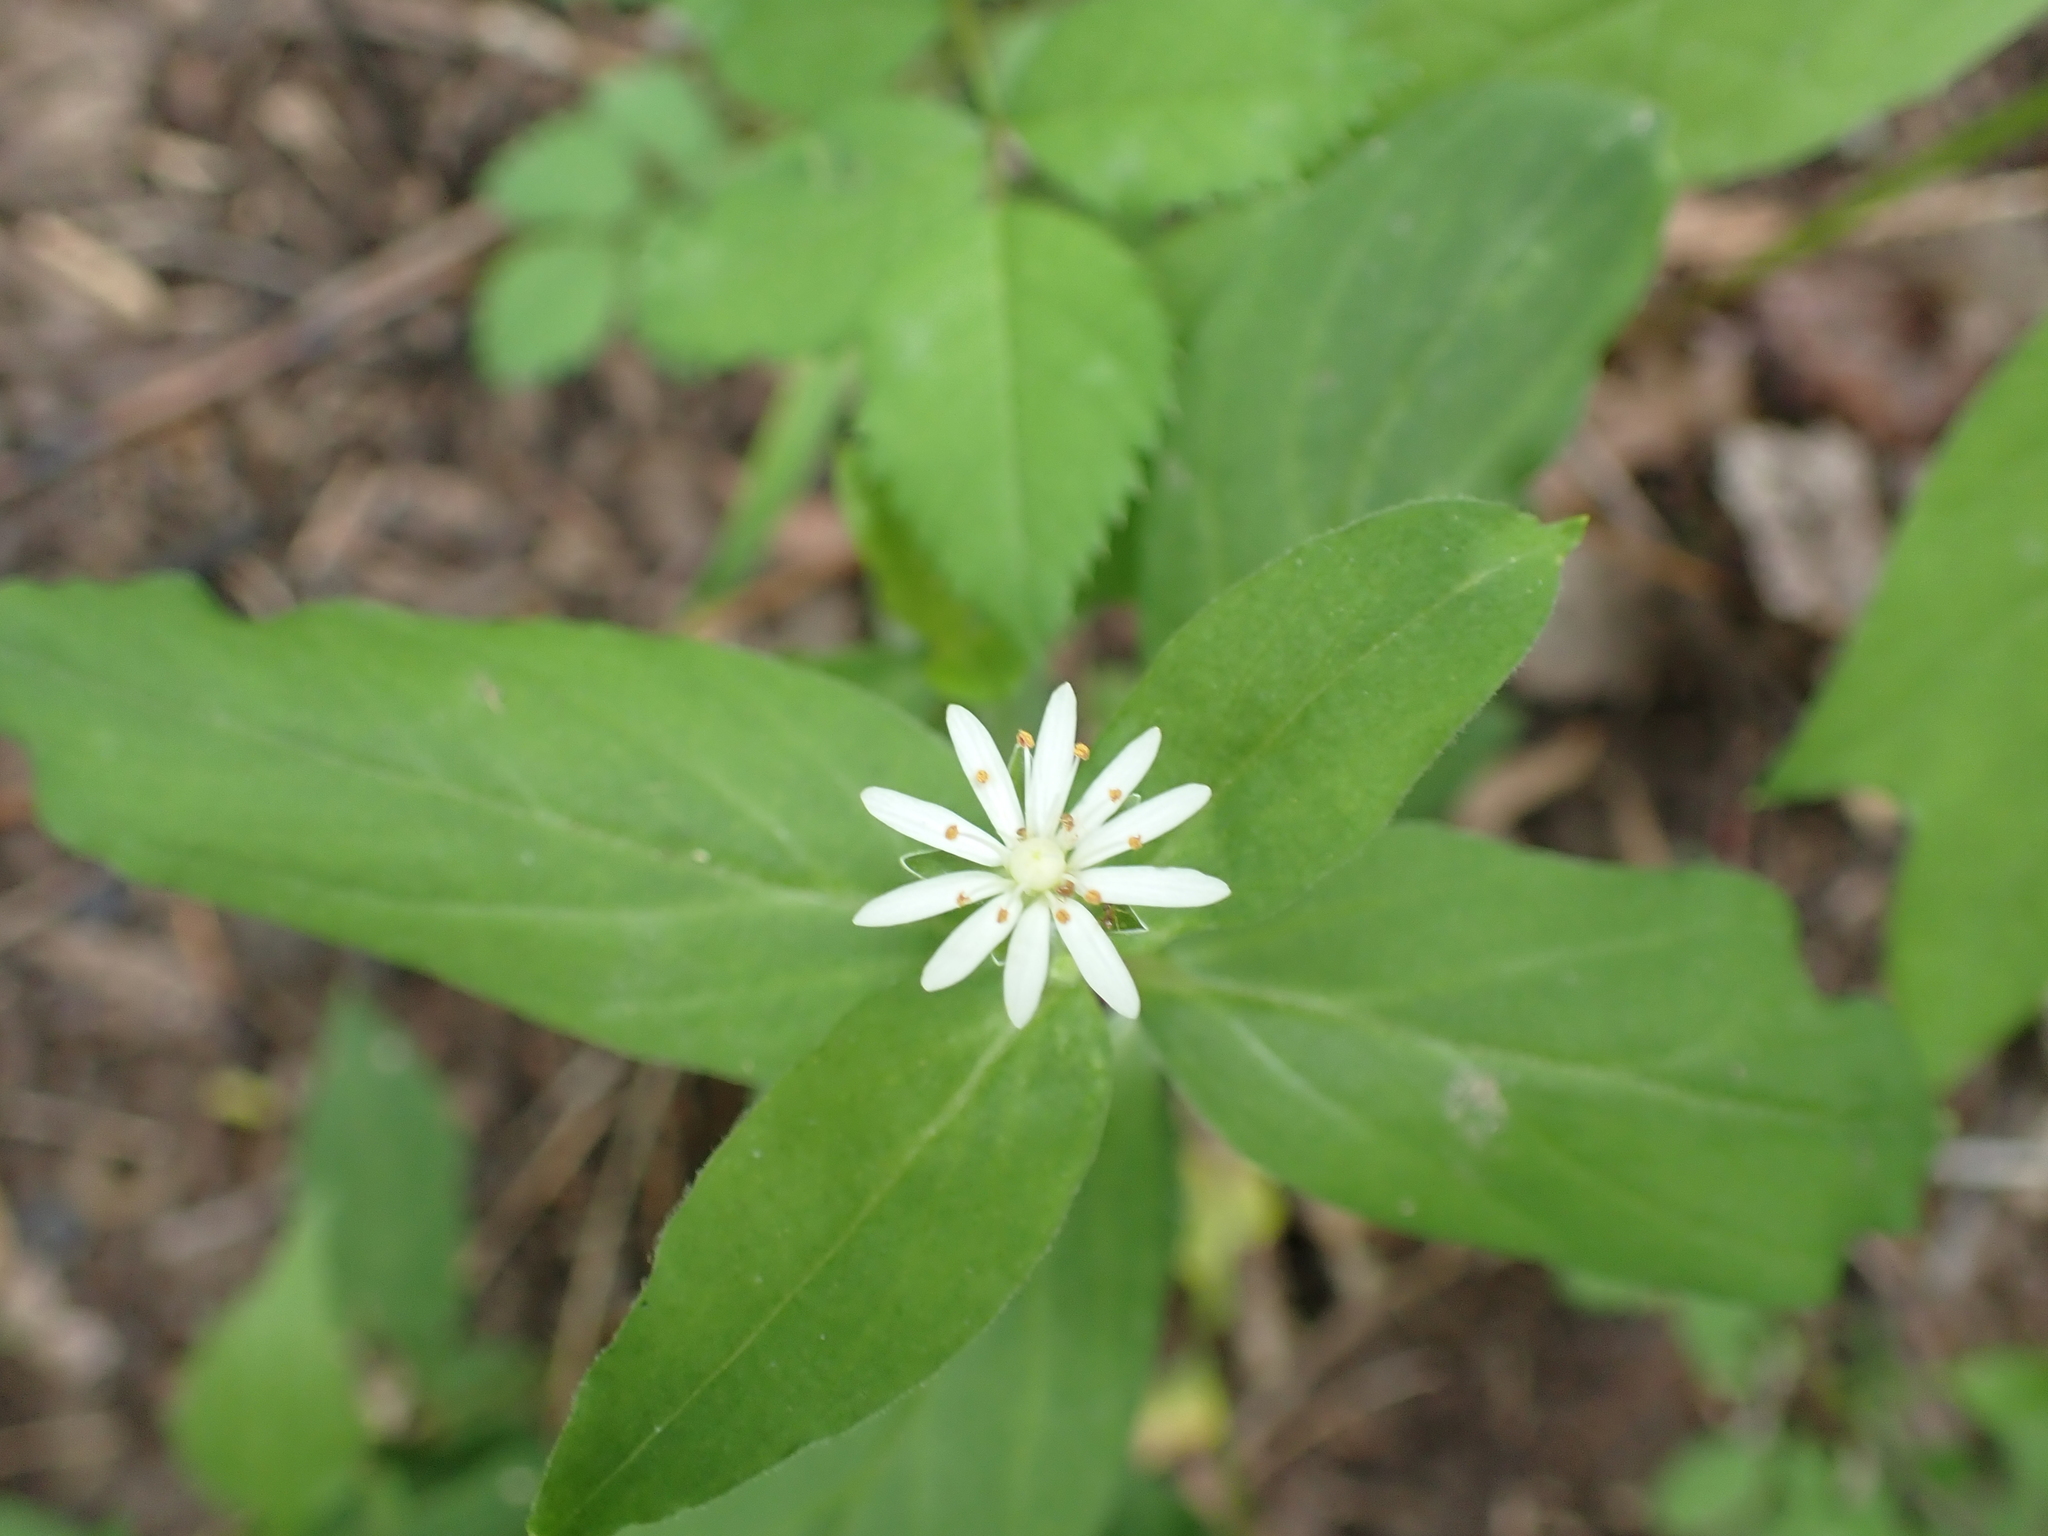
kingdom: Plantae
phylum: Tracheophyta
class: Magnoliopsida
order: Caryophyllales
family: Caryophyllaceae
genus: Stellaria
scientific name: Stellaria pubera
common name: Star chickweed
